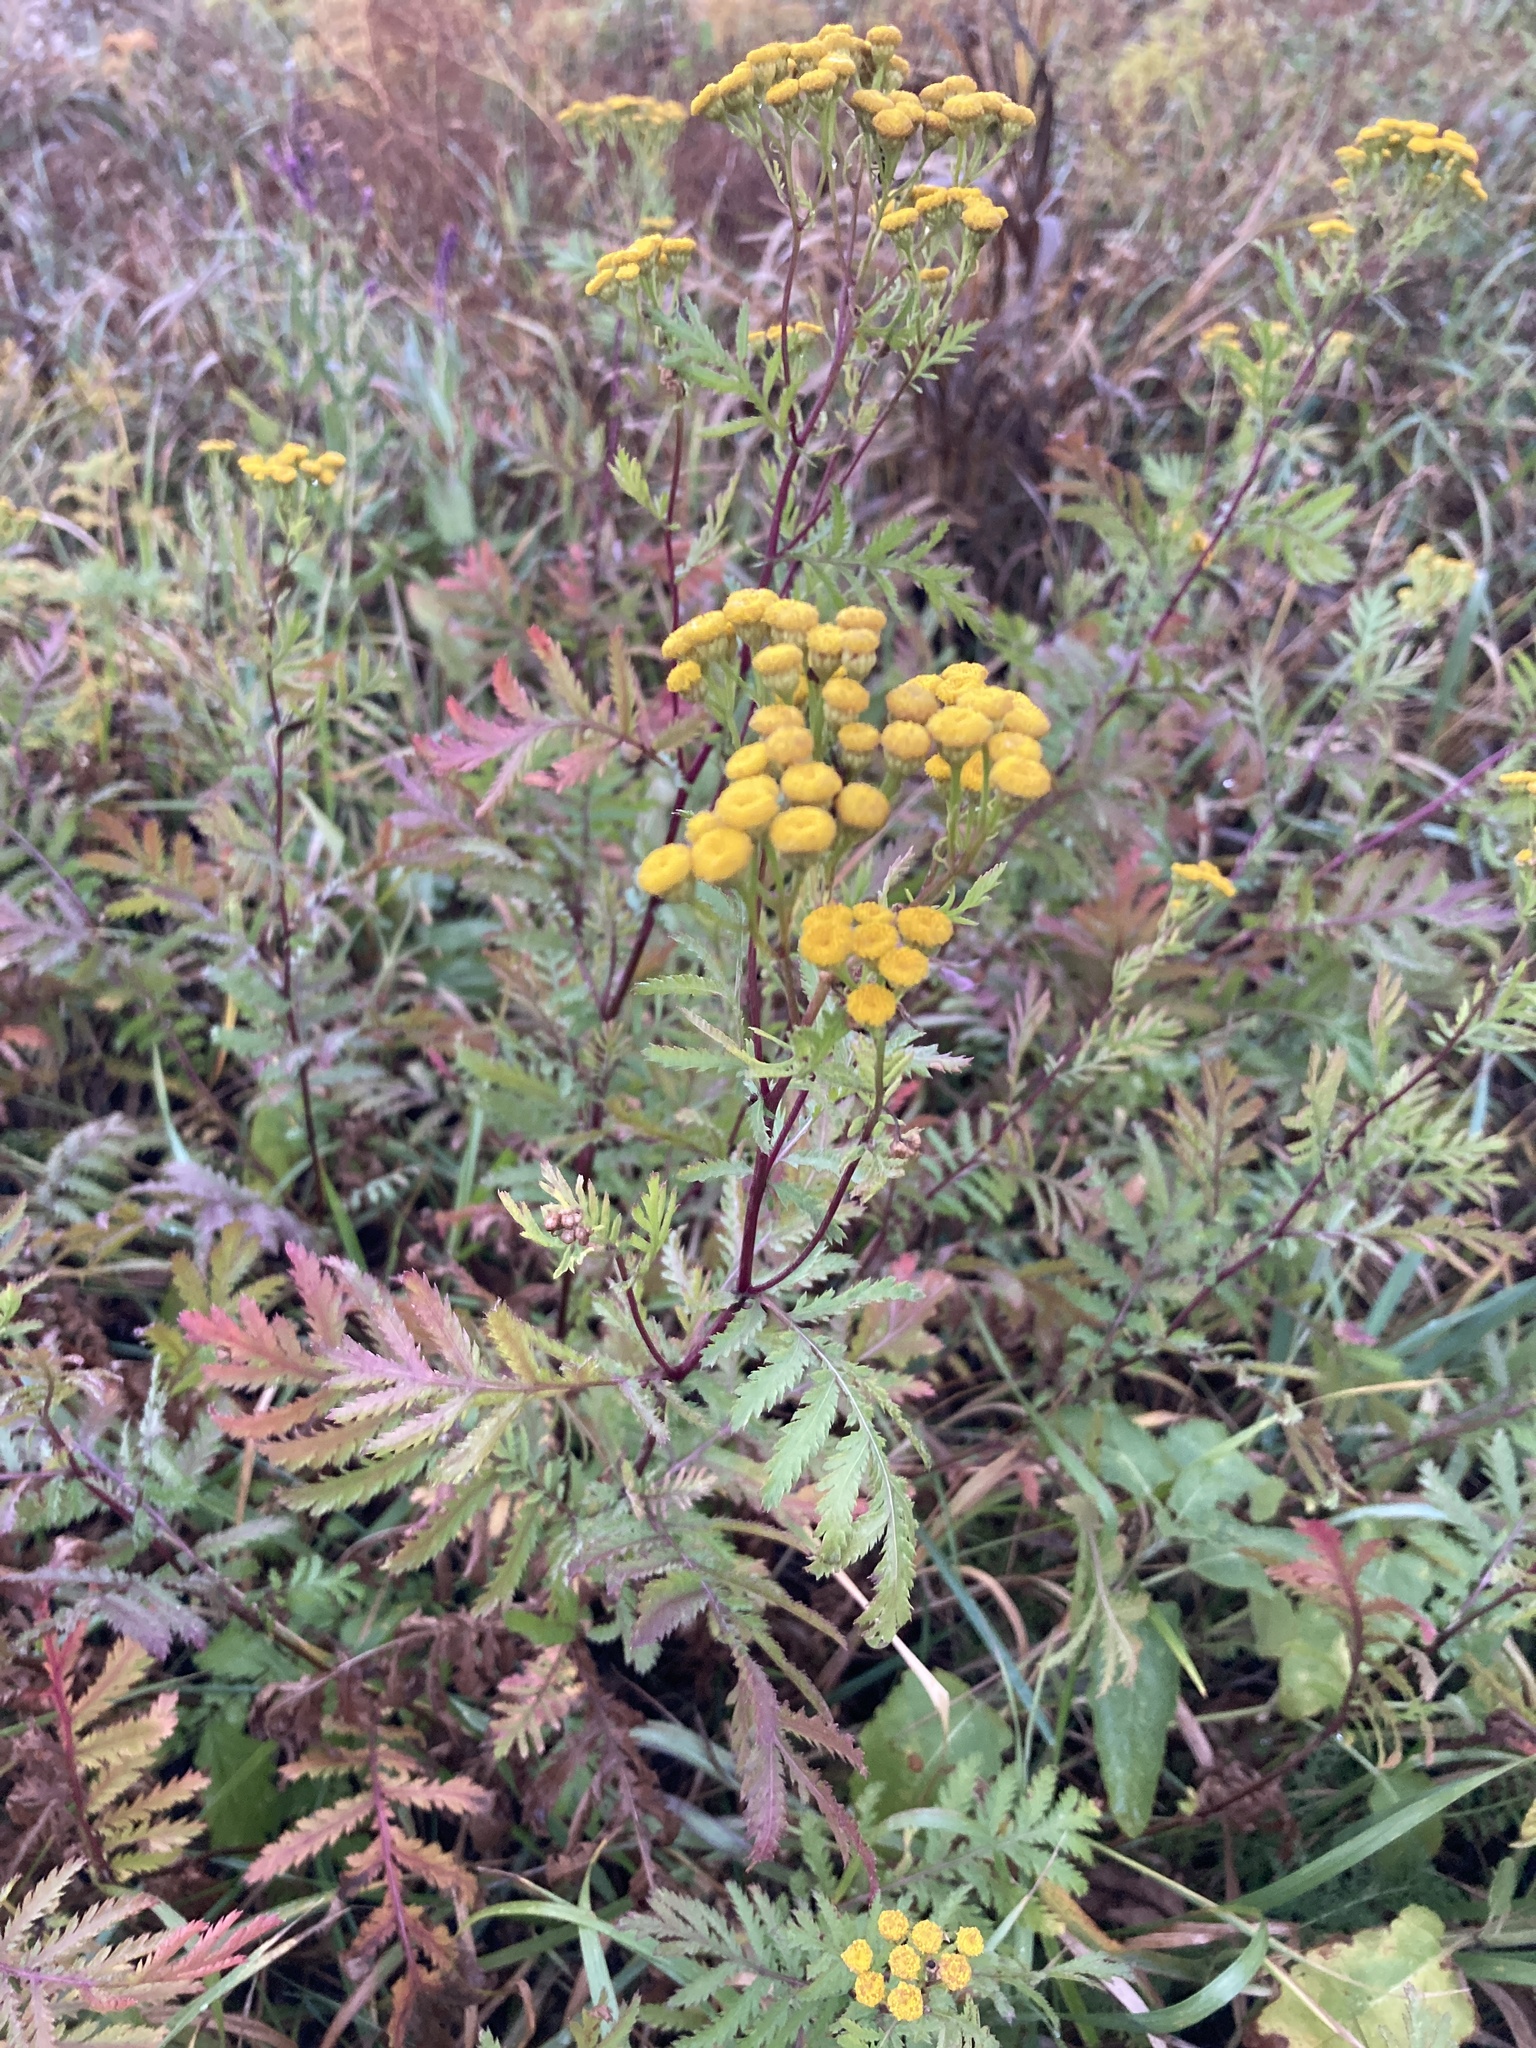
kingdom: Plantae
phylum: Tracheophyta
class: Magnoliopsida
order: Asterales
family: Asteraceae
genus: Tanacetum
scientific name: Tanacetum vulgare
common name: Common tansy
